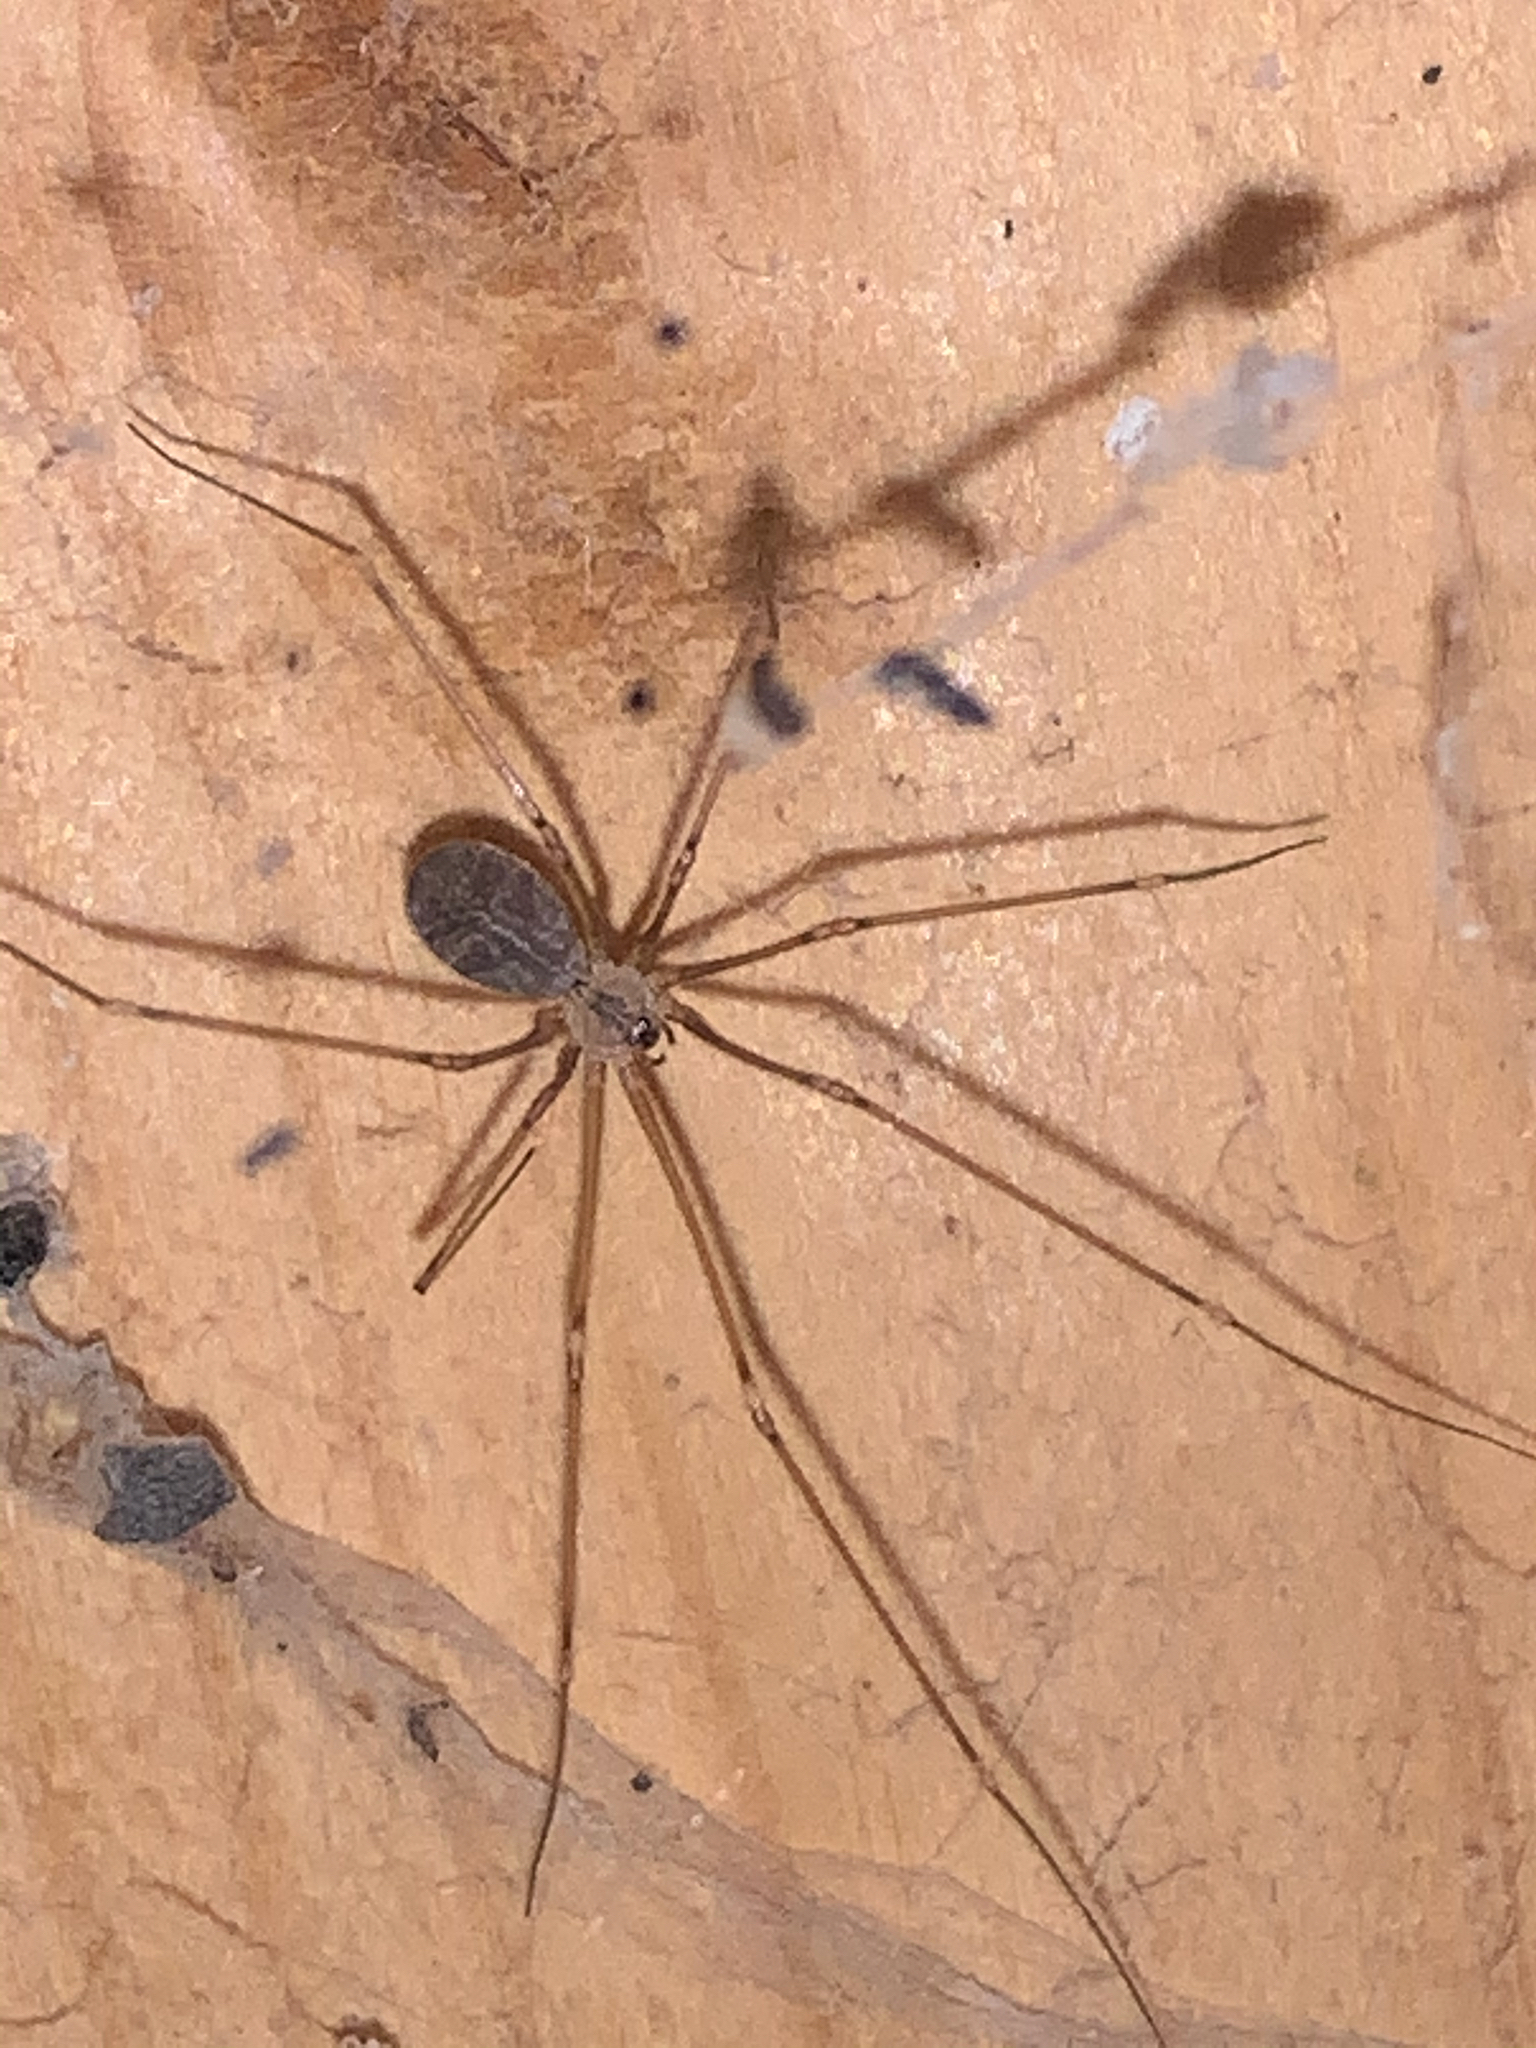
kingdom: Animalia
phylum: Arthropoda
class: Arachnida
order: Araneae
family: Pholcidae
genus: Pholcus
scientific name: Pholcus manueli
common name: Cellar spider
